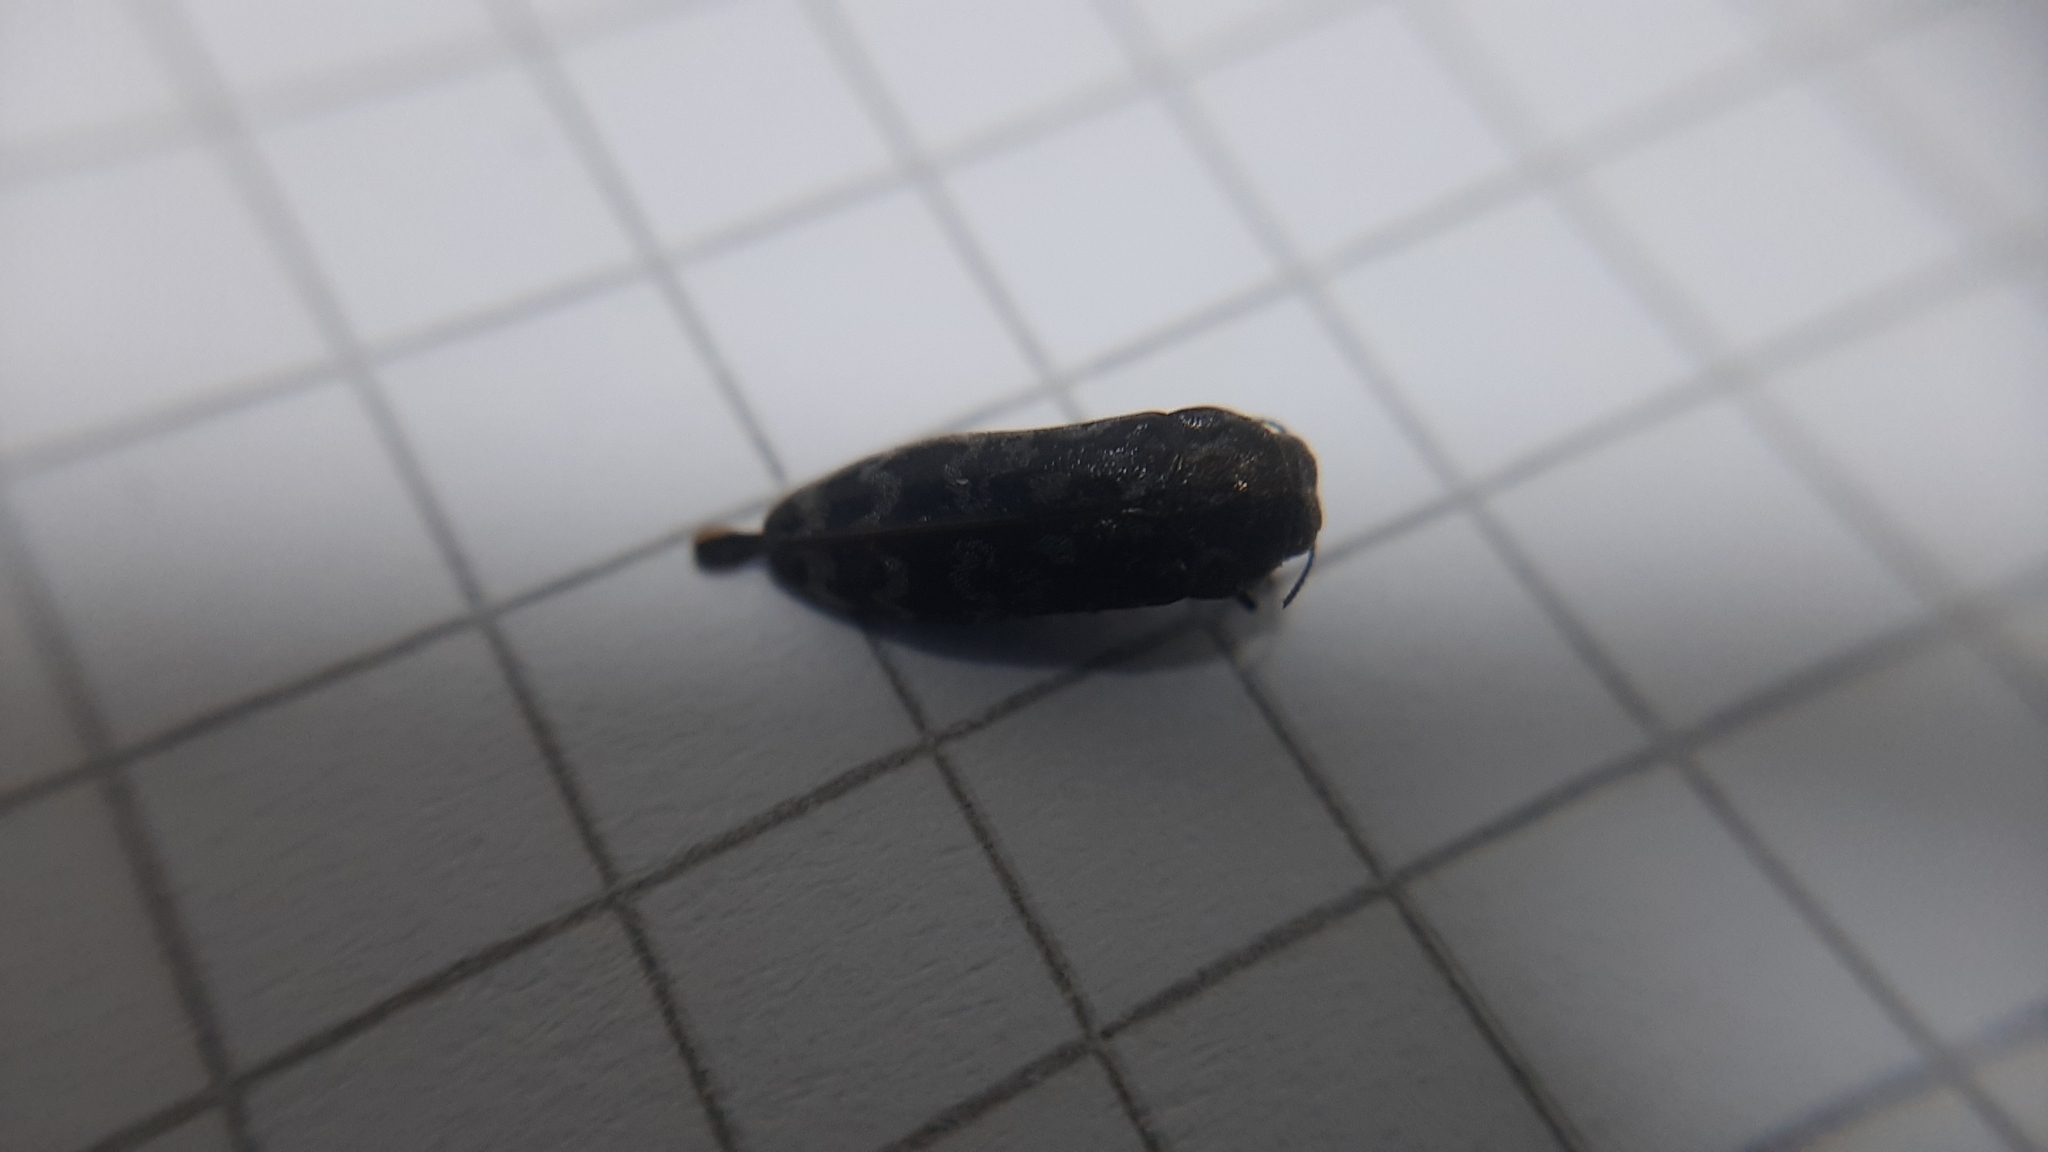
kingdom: Animalia
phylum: Arthropoda
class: Insecta
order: Coleoptera
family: Buprestidae
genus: Coraebus
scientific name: Coraebus rubi
